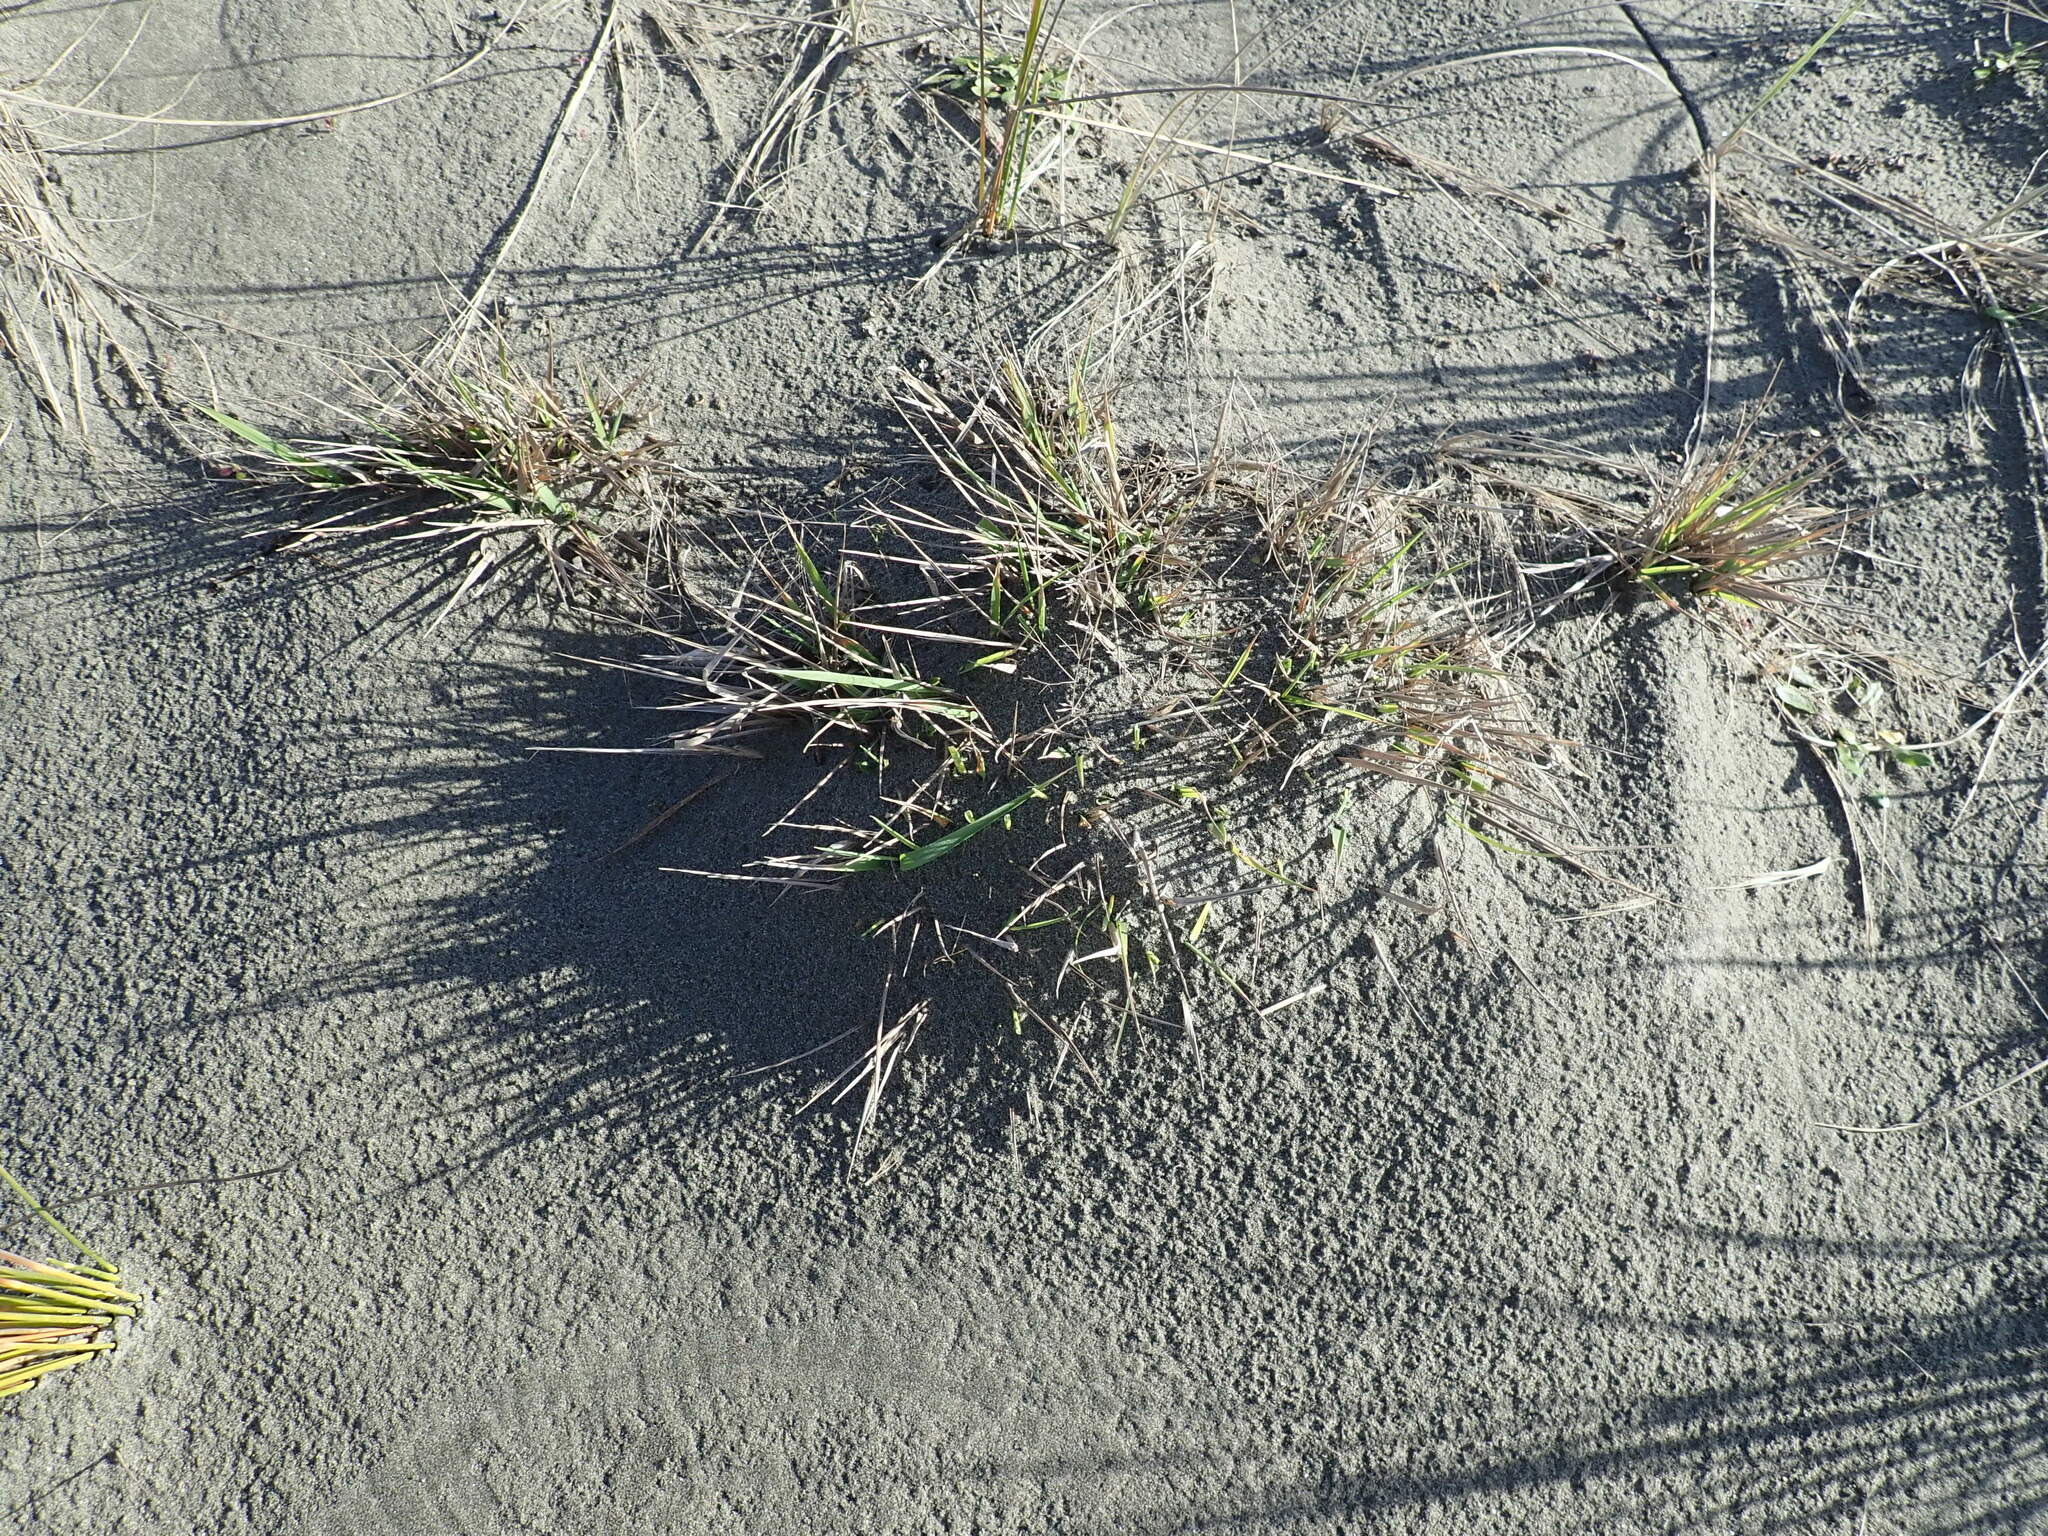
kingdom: Plantae
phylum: Tracheophyta
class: Liliopsida
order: Poales
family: Poaceae
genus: Lachnagrostis
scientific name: Lachnagrostis billardierei
